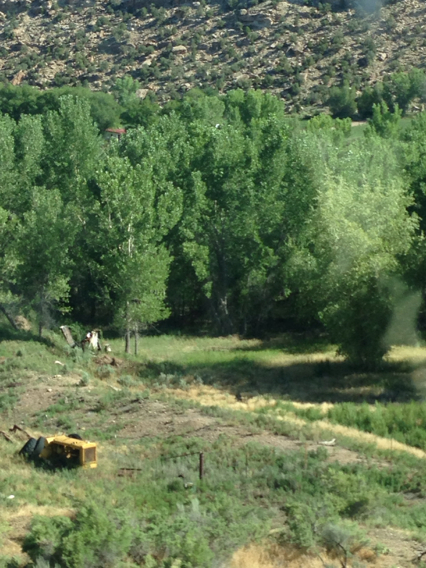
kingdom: Plantae
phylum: Tracheophyta
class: Magnoliopsida
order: Malpighiales
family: Salicaceae
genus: Populus
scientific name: Populus fremontii
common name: Fremont's cottonwood
